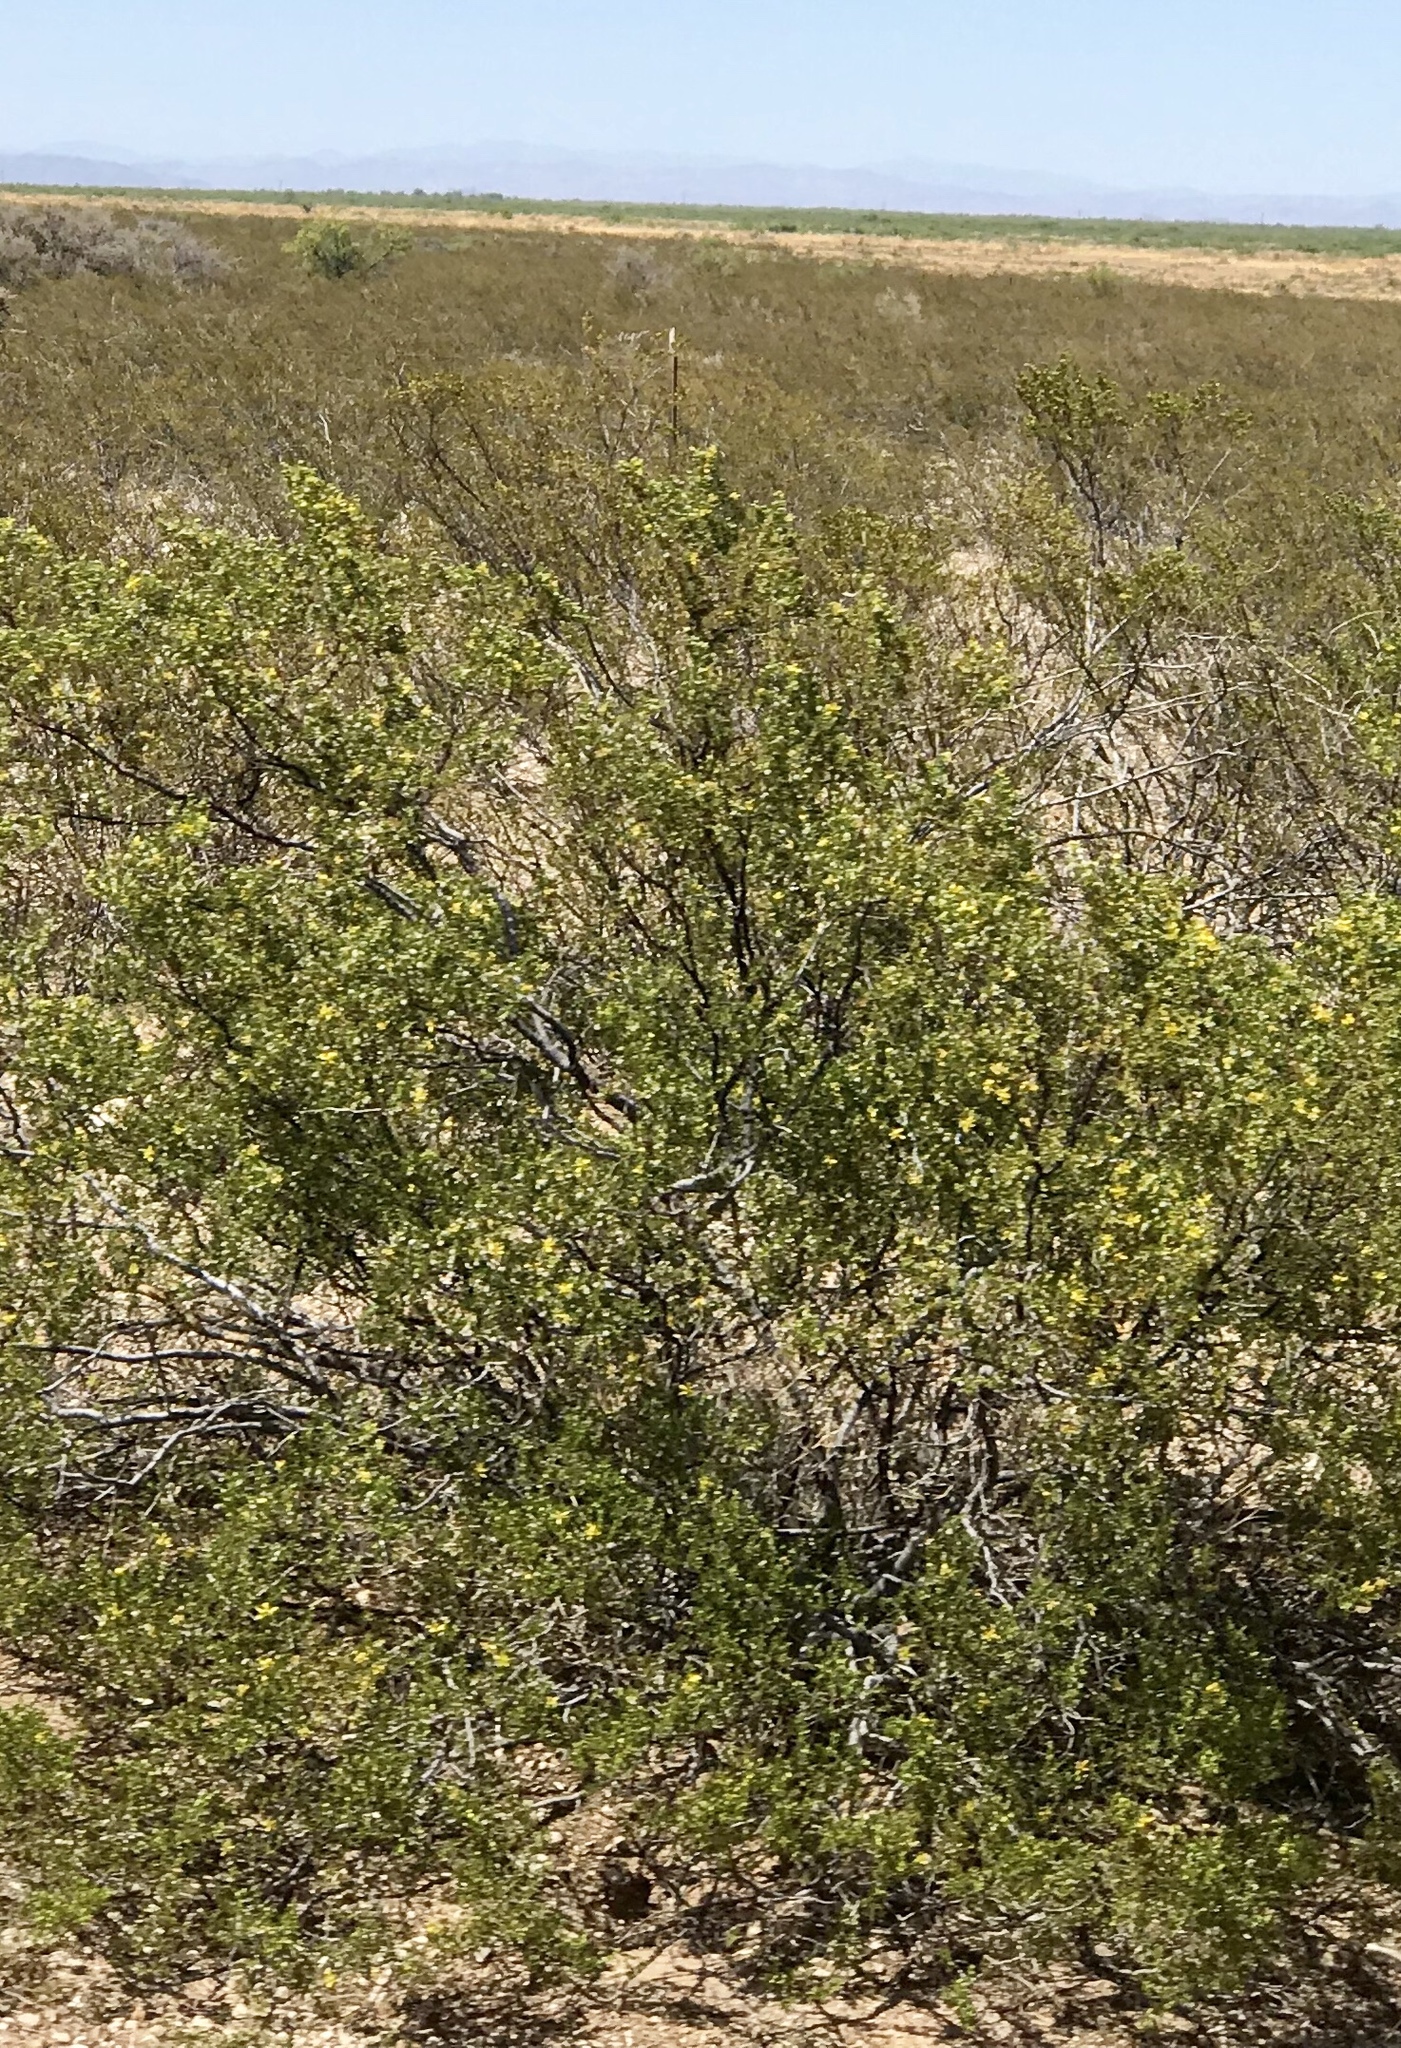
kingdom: Plantae
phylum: Tracheophyta
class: Magnoliopsida
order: Zygophyllales
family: Zygophyllaceae
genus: Larrea
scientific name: Larrea tridentata
